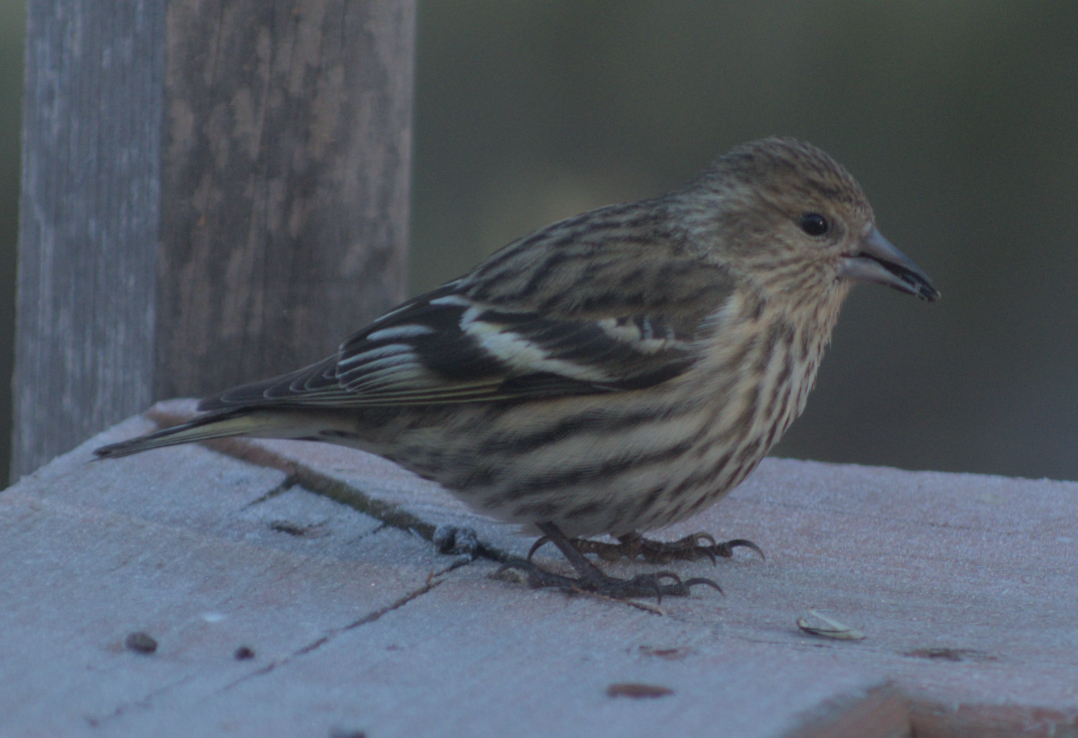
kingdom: Animalia
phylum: Chordata
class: Aves
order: Passeriformes
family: Fringillidae
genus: Spinus
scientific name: Spinus pinus
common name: Pine siskin
